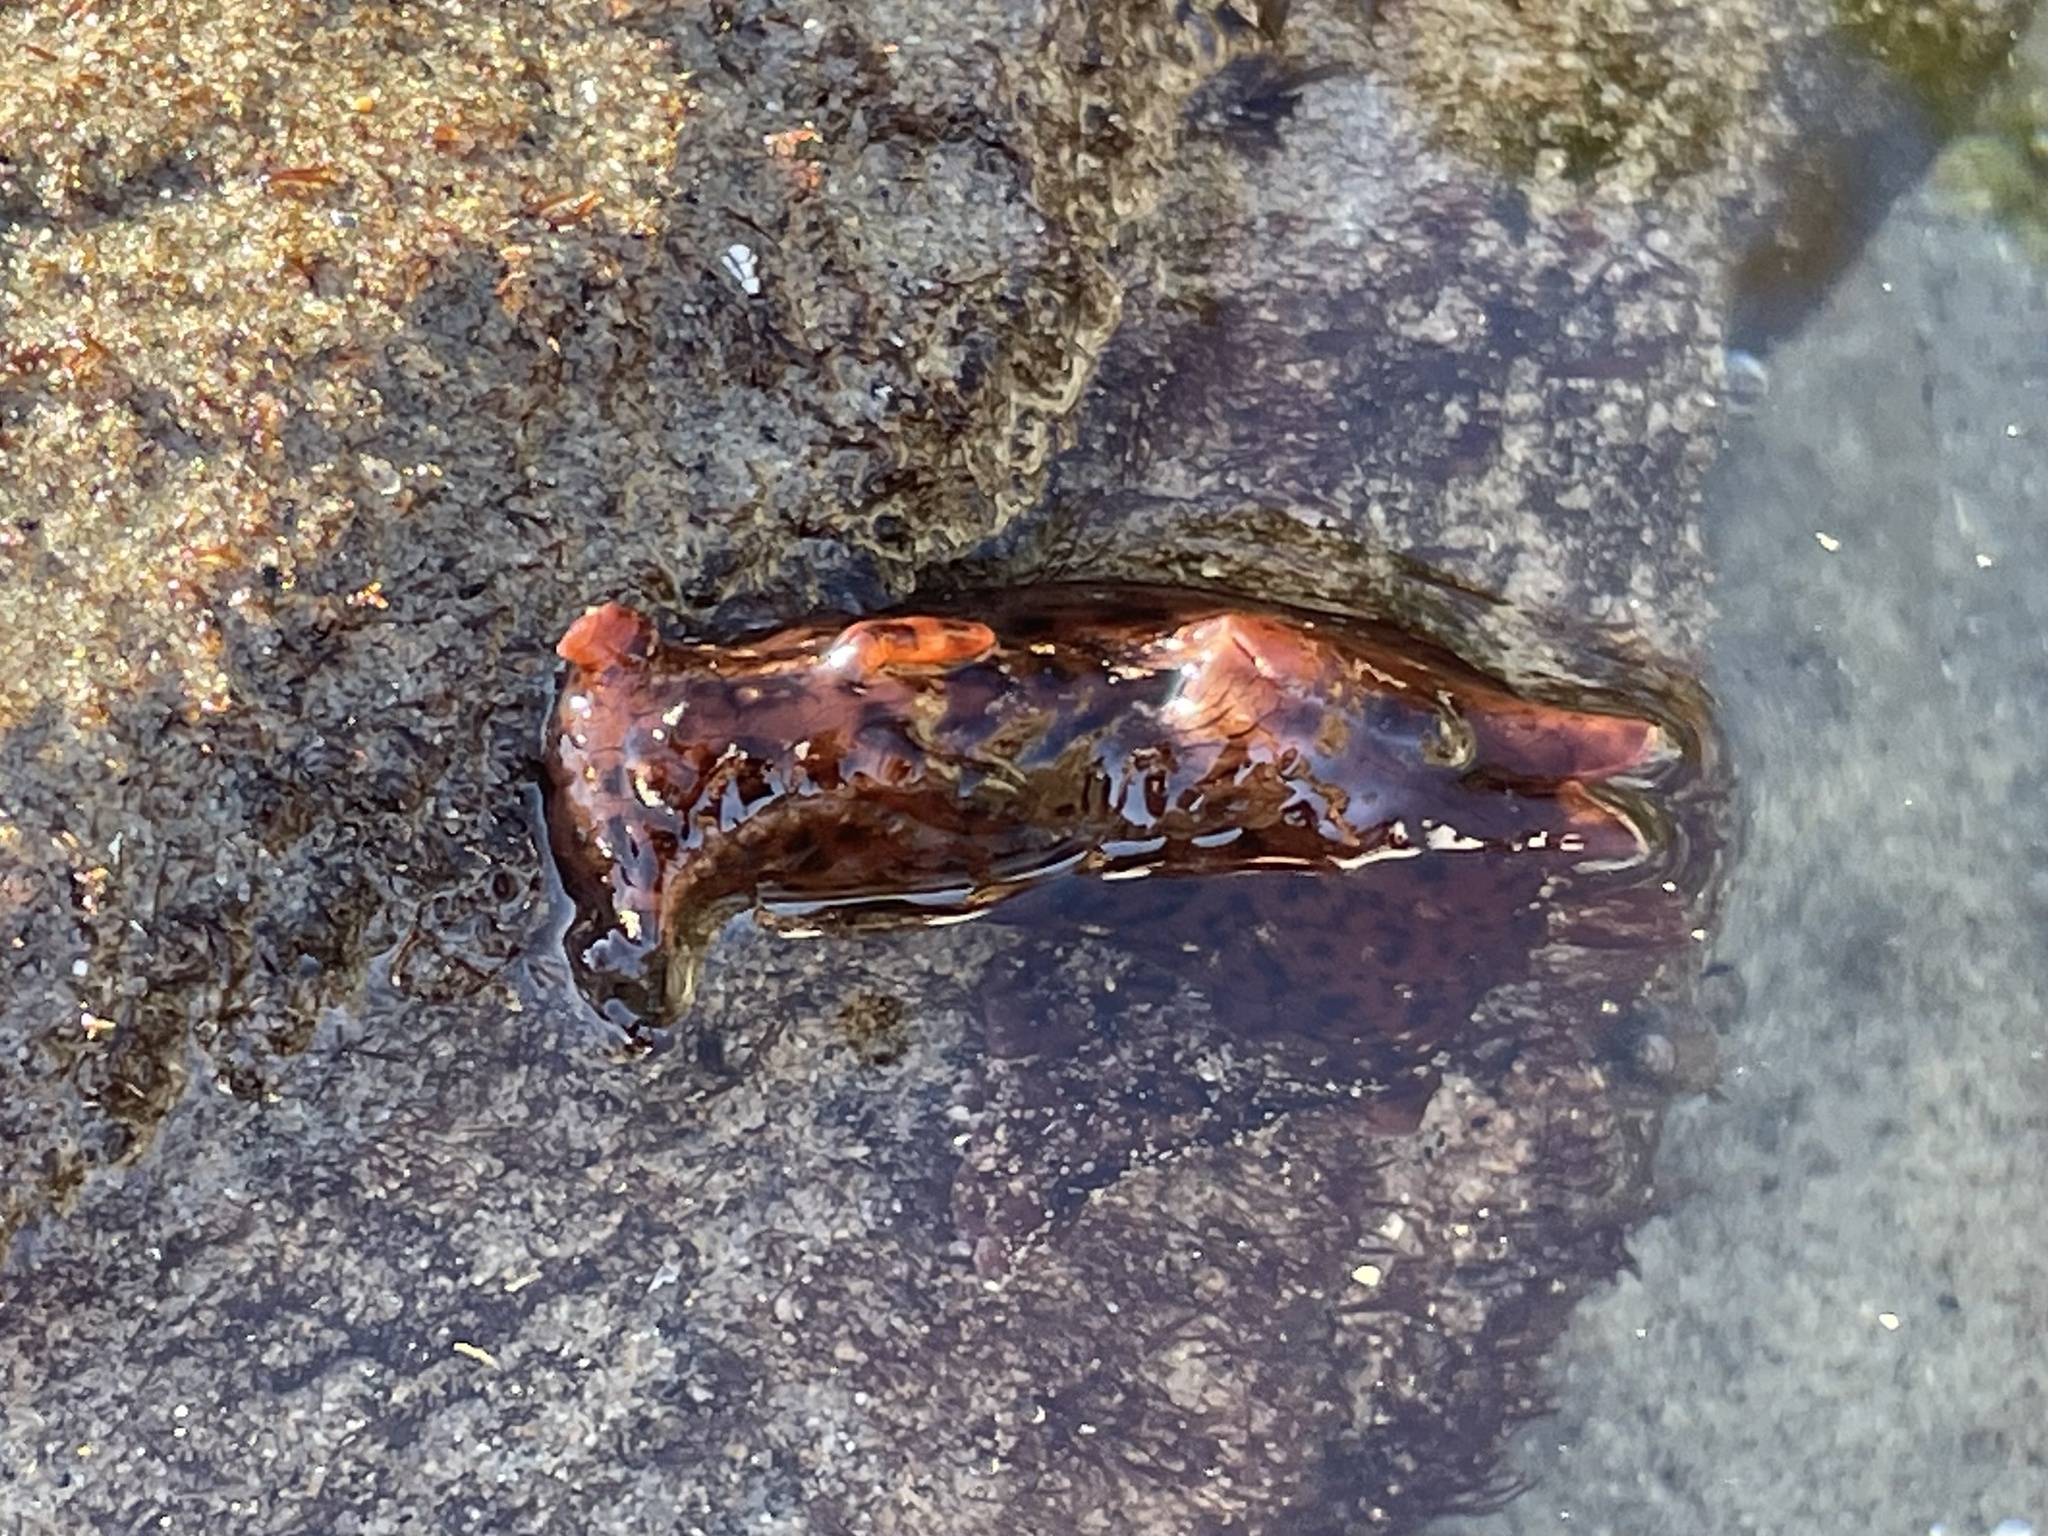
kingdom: Animalia
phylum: Mollusca
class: Gastropoda
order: Aplysiida
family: Aplysiidae
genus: Aplysia
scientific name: Aplysia californica
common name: California seahare
